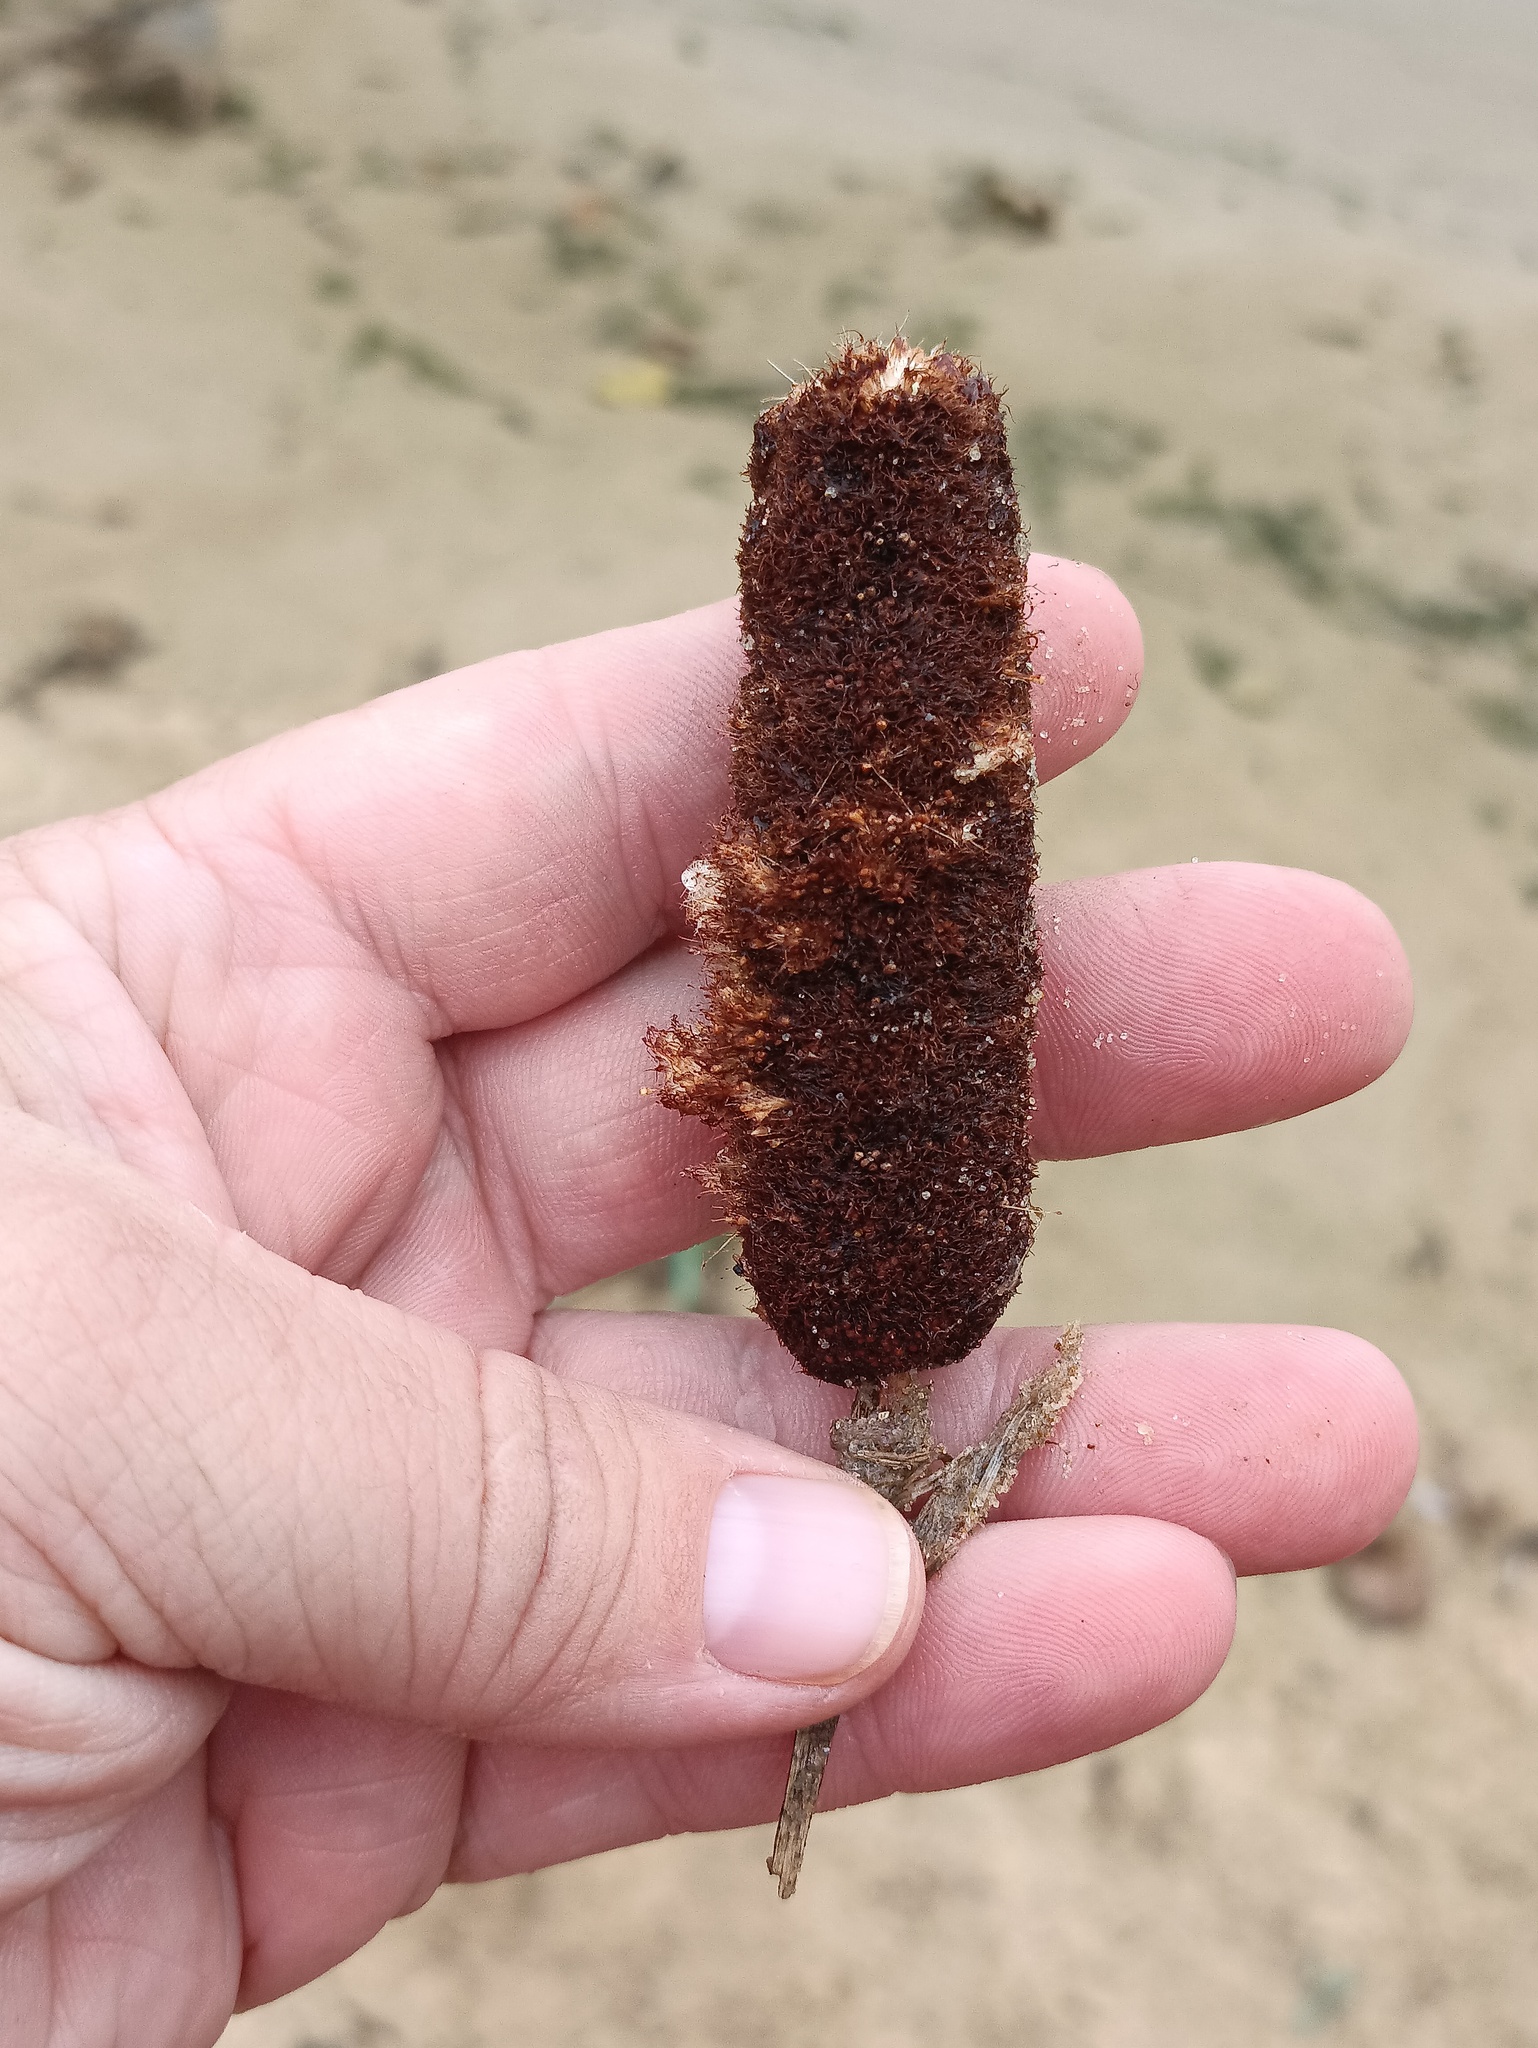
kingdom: Plantae
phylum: Tracheophyta
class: Liliopsida
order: Poales
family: Typhaceae
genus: Typha
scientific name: Typha latifolia
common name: Broadleaf cattail
